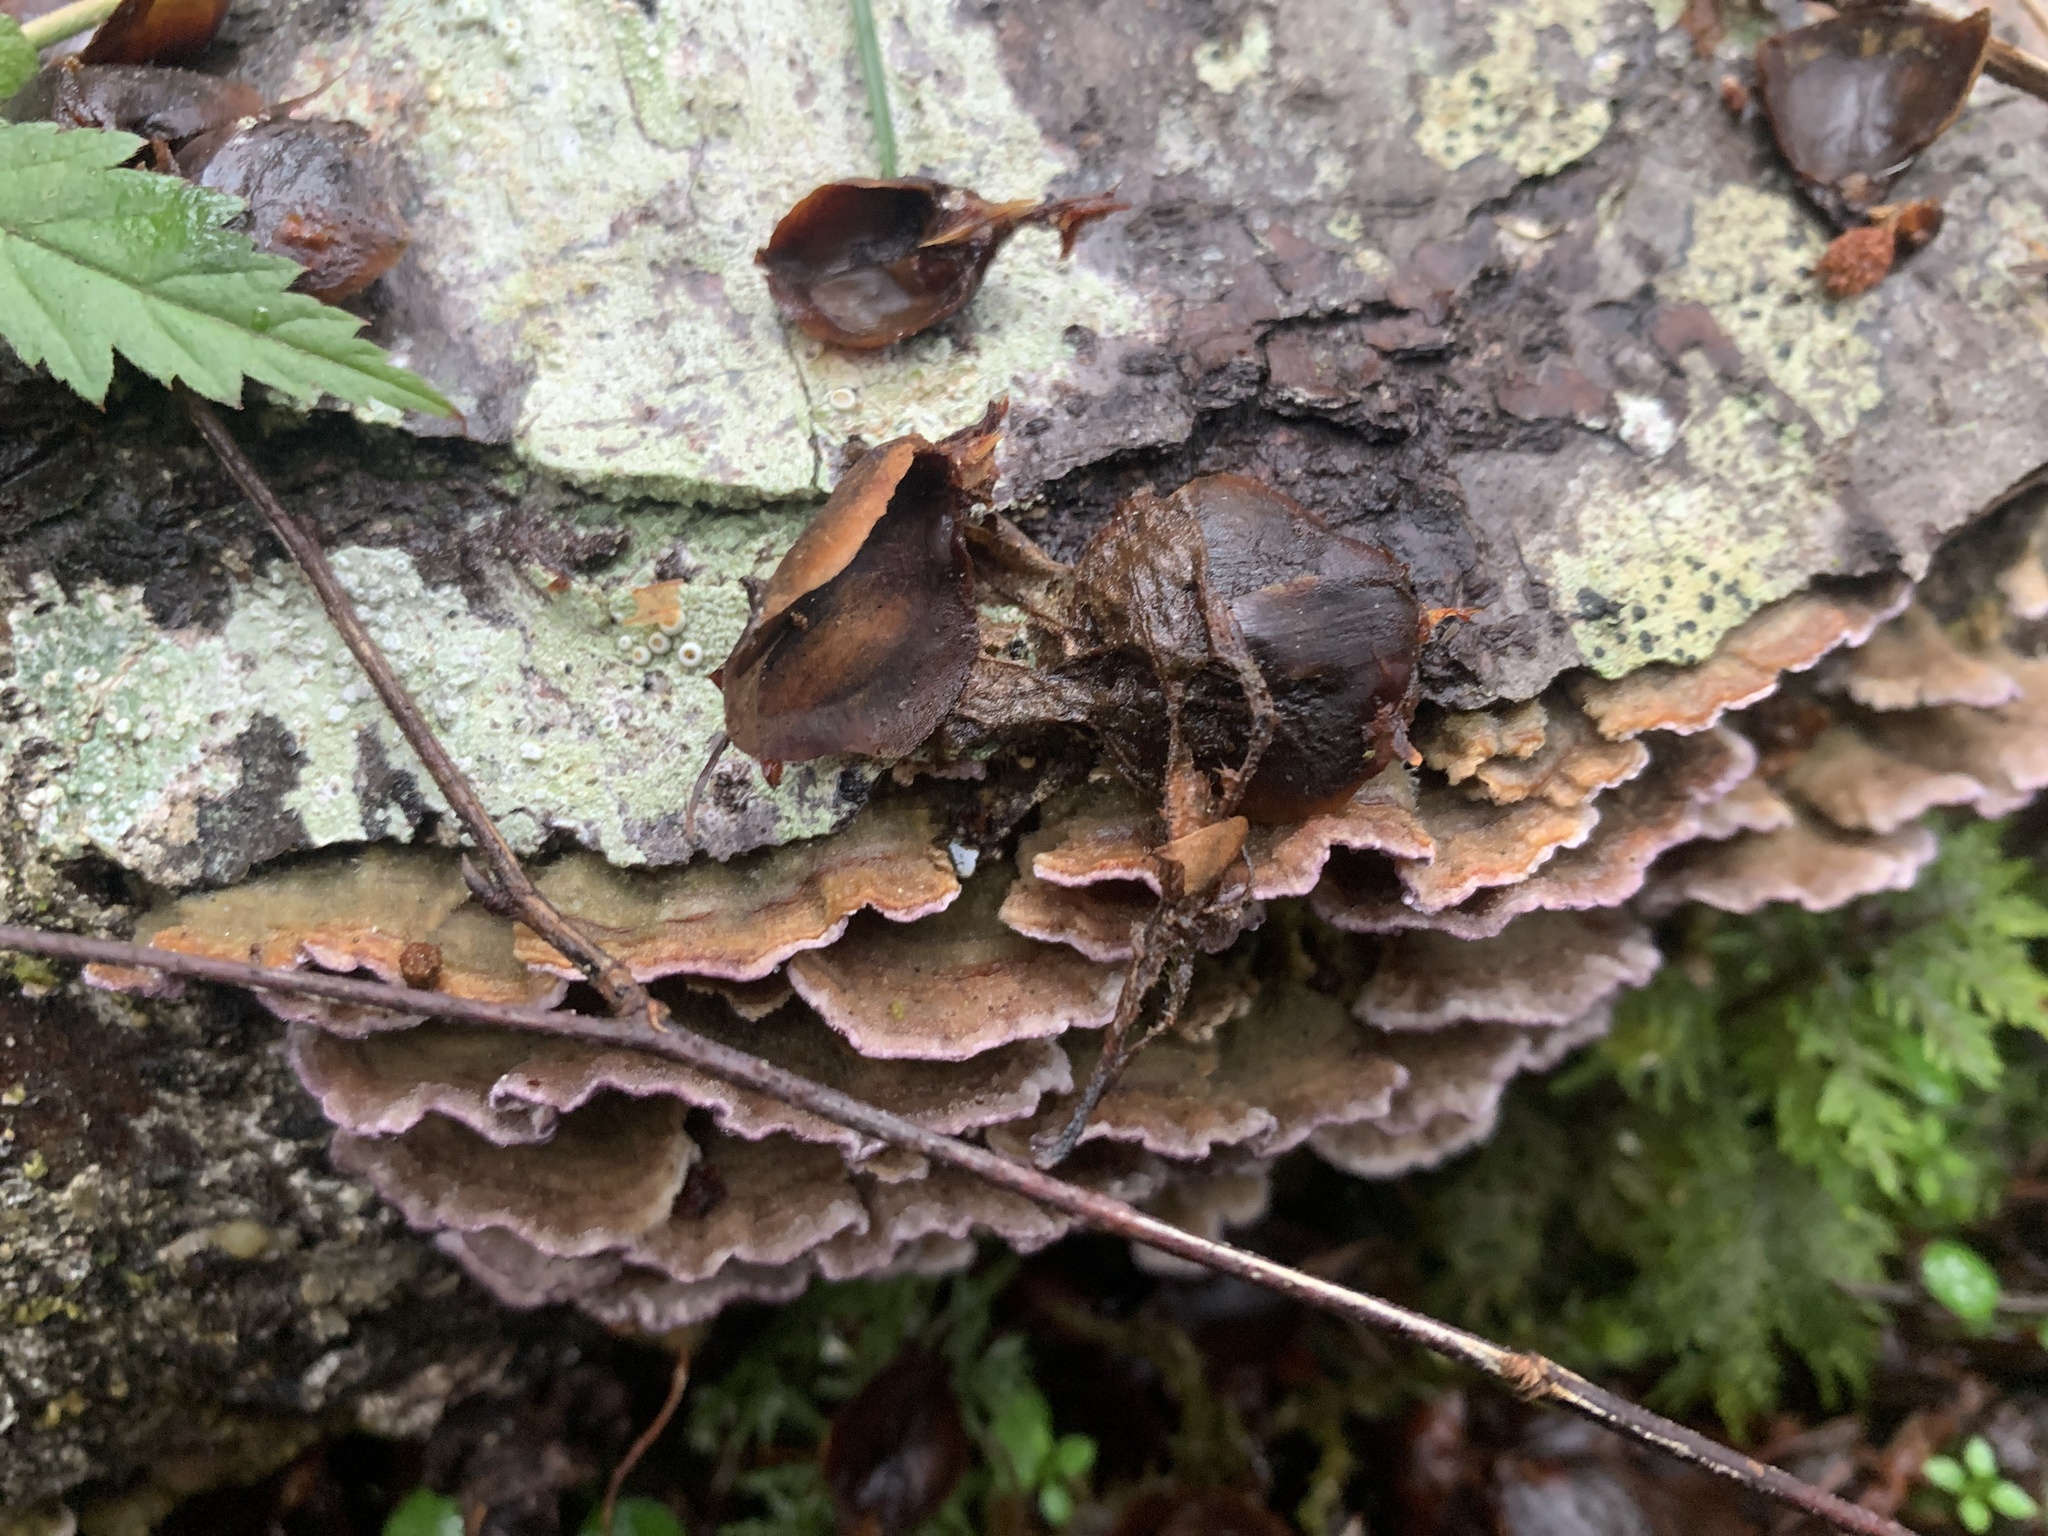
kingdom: Fungi
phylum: Basidiomycota
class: Agaricomycetes
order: Agaricales
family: Cyphellaceae
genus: Chondrostereum
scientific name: Chondrostereum purpureum
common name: Silver leaf disease
